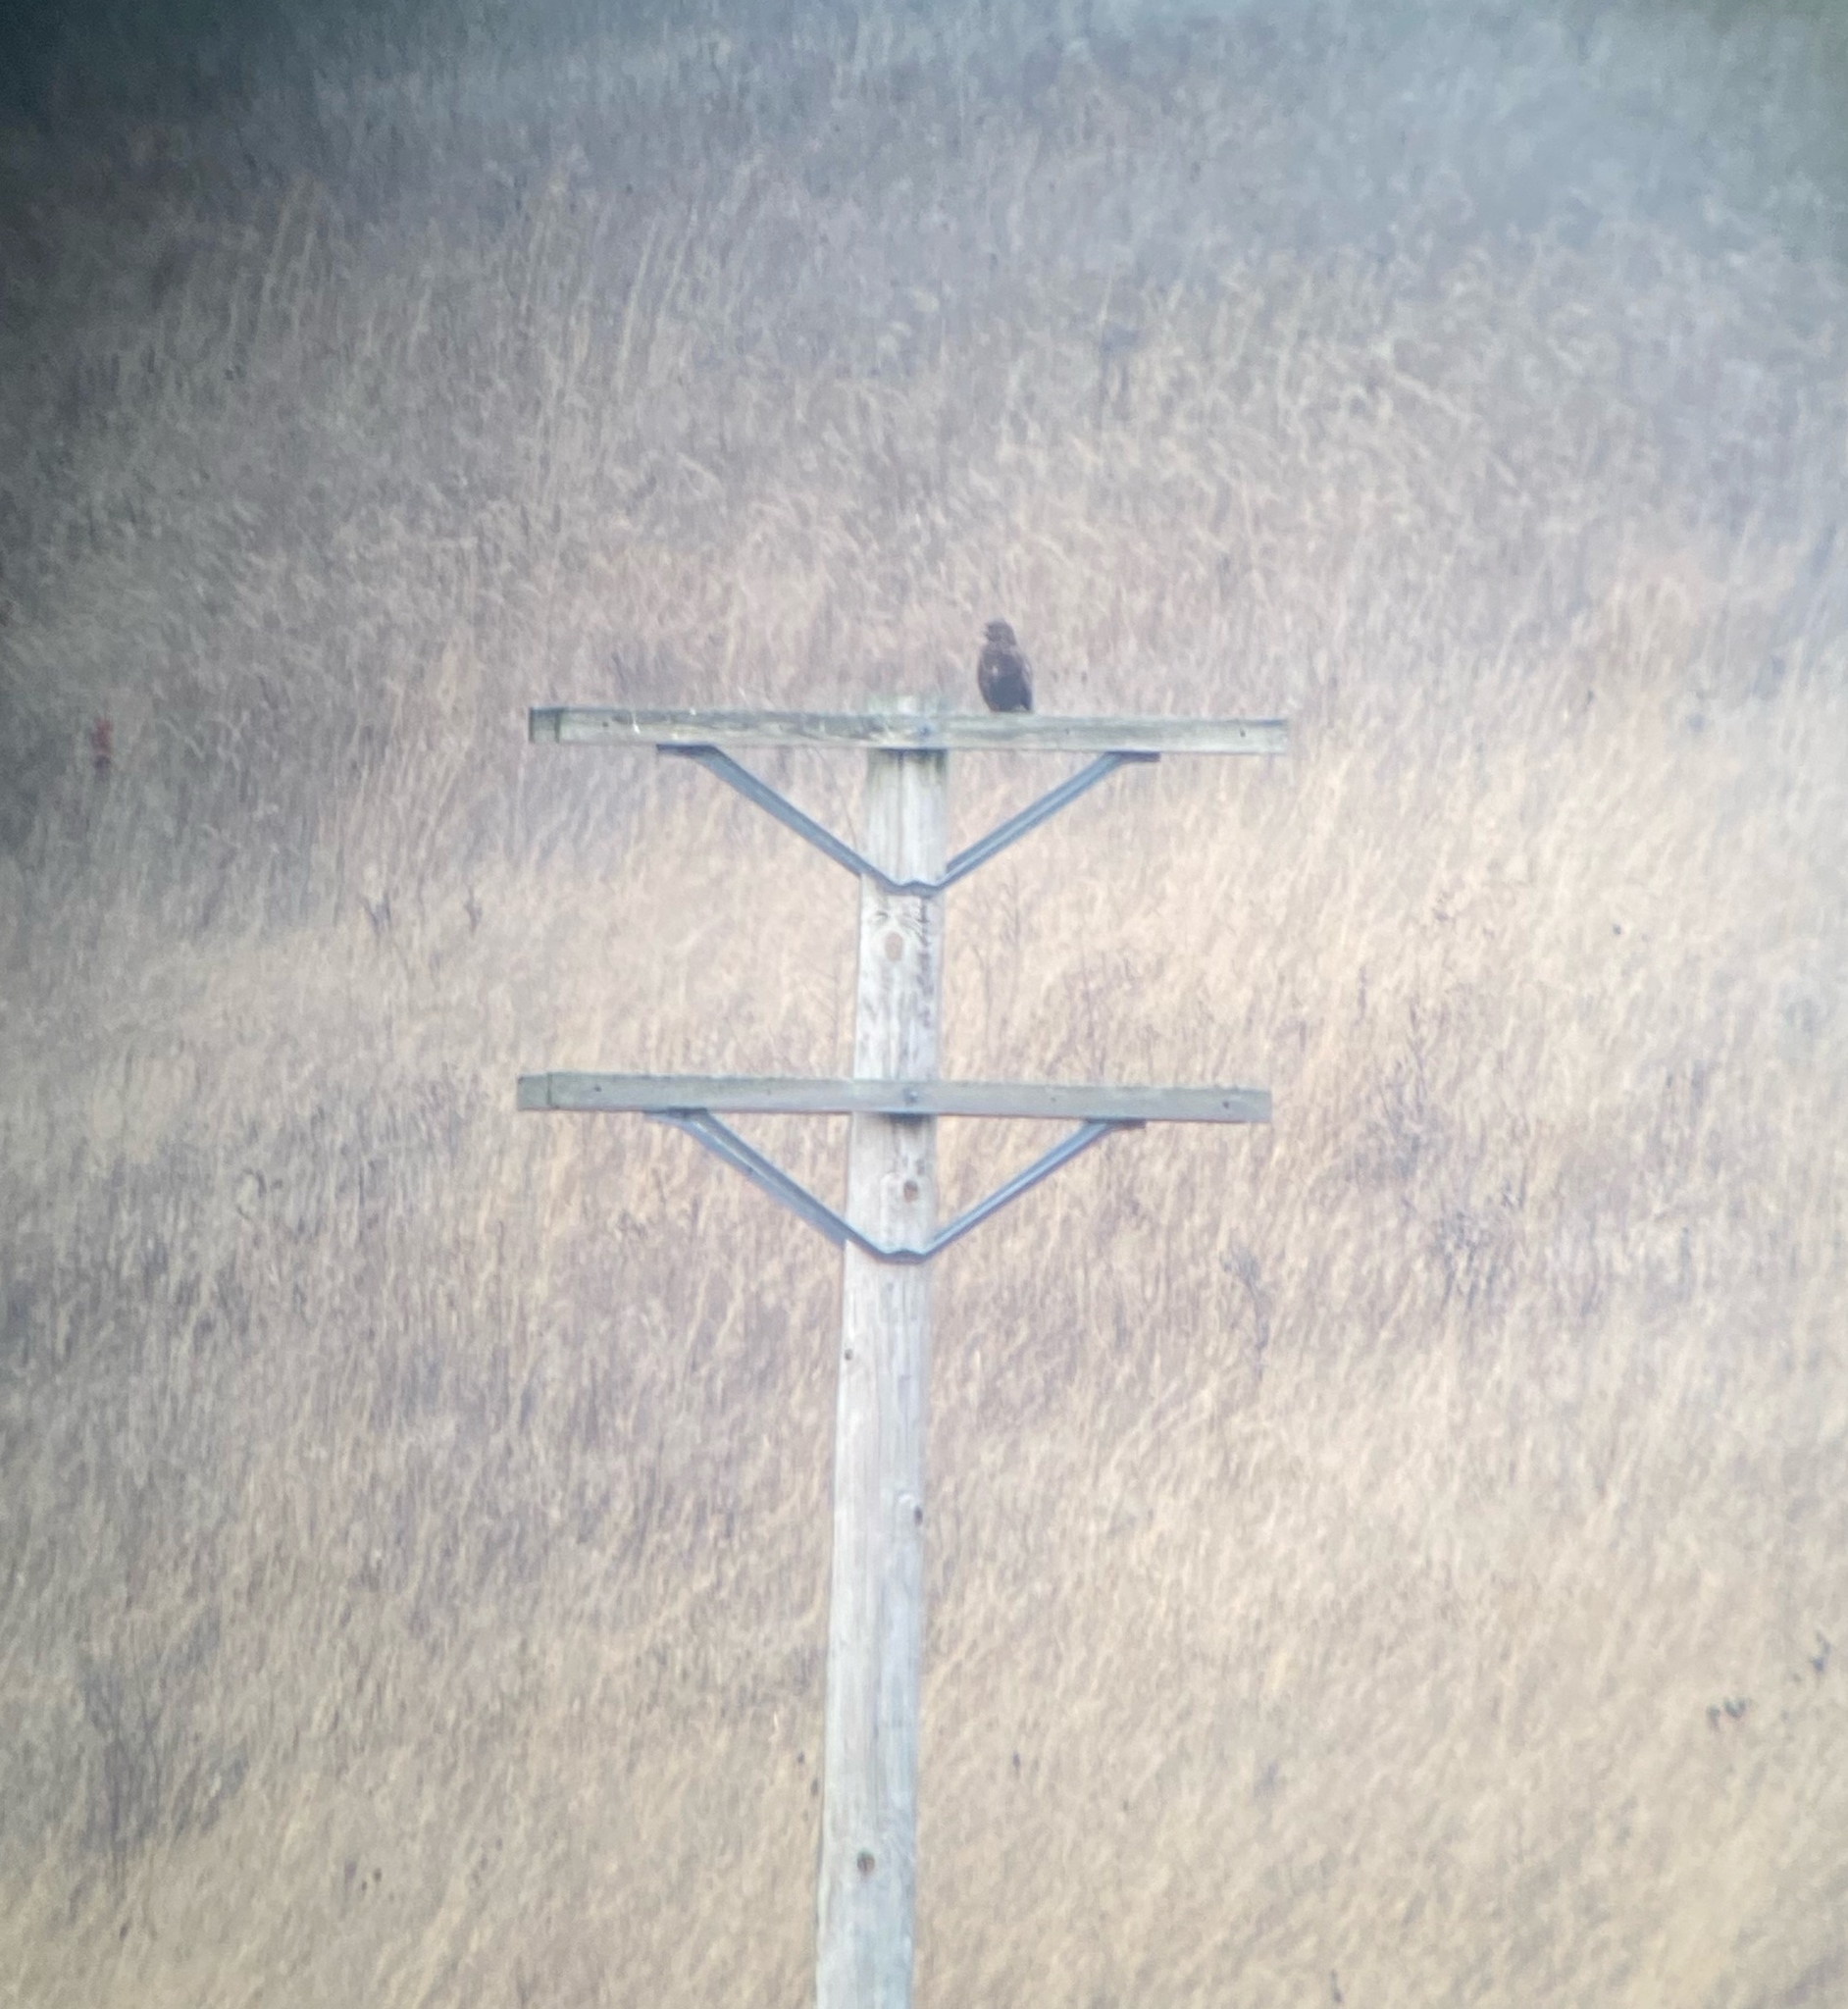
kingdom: Animalia
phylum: Chordata
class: Aves
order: Accipitriformes
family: Accipitridae
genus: Buteo
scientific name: Buteo lagopus
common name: Rough-legged buzzard
